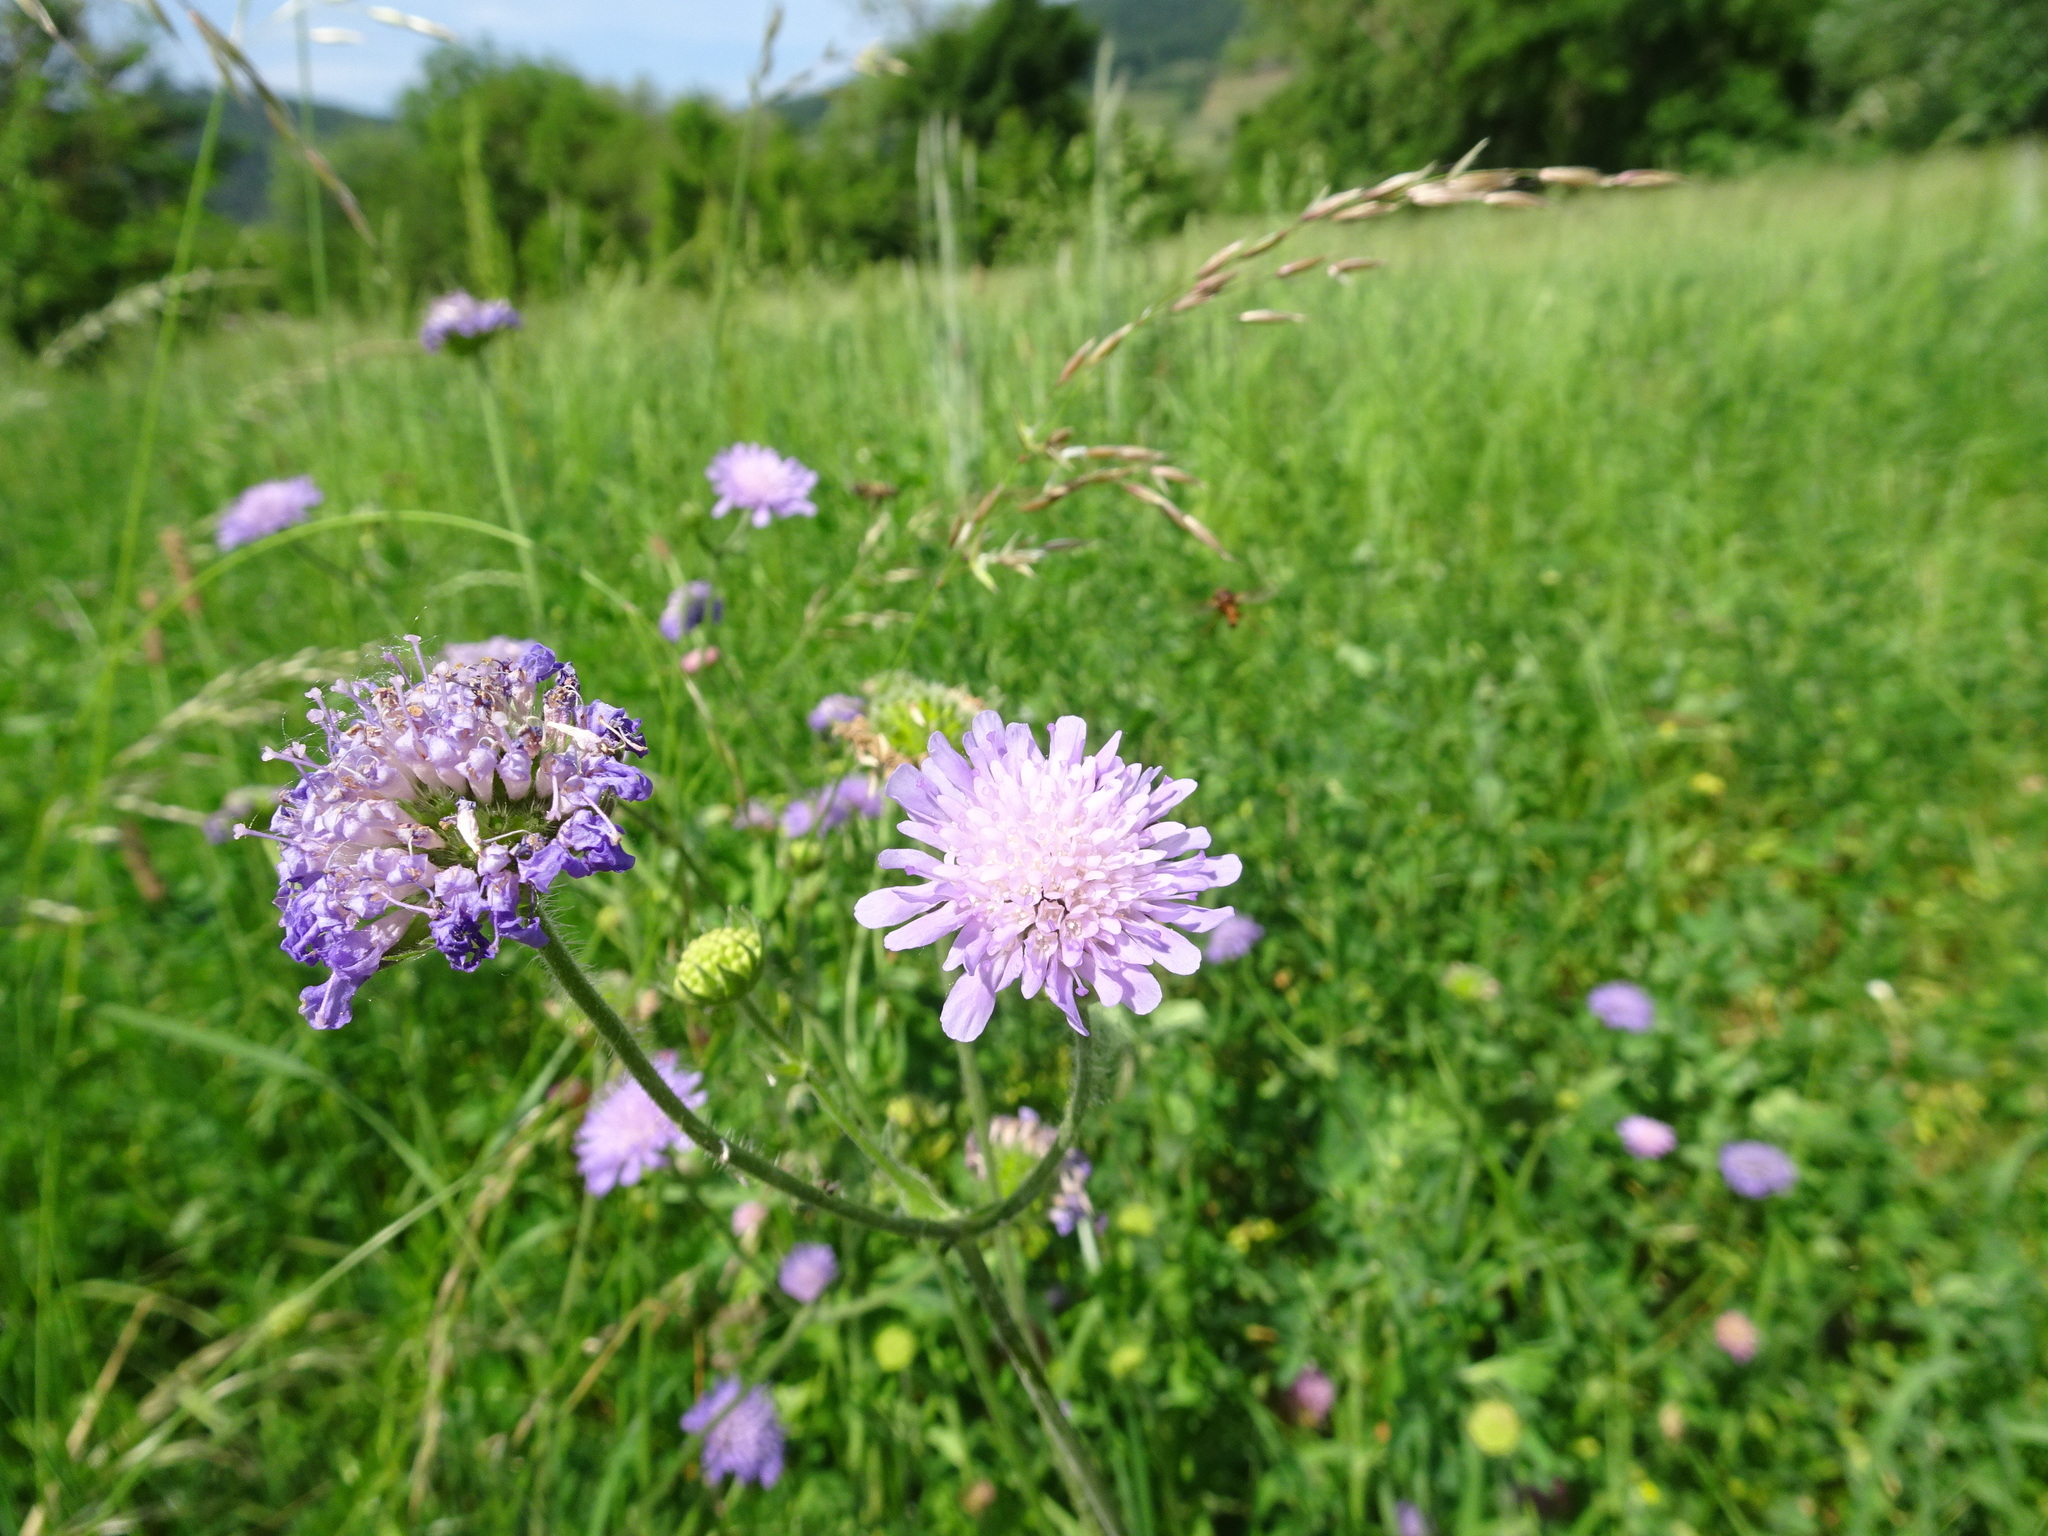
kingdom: Plantae
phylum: Tracheophyta
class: Magnoliopsida
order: Dipsacales
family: Caprifoliaceae
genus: Knautia
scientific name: Knautia arvensis
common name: Field scabiosa
